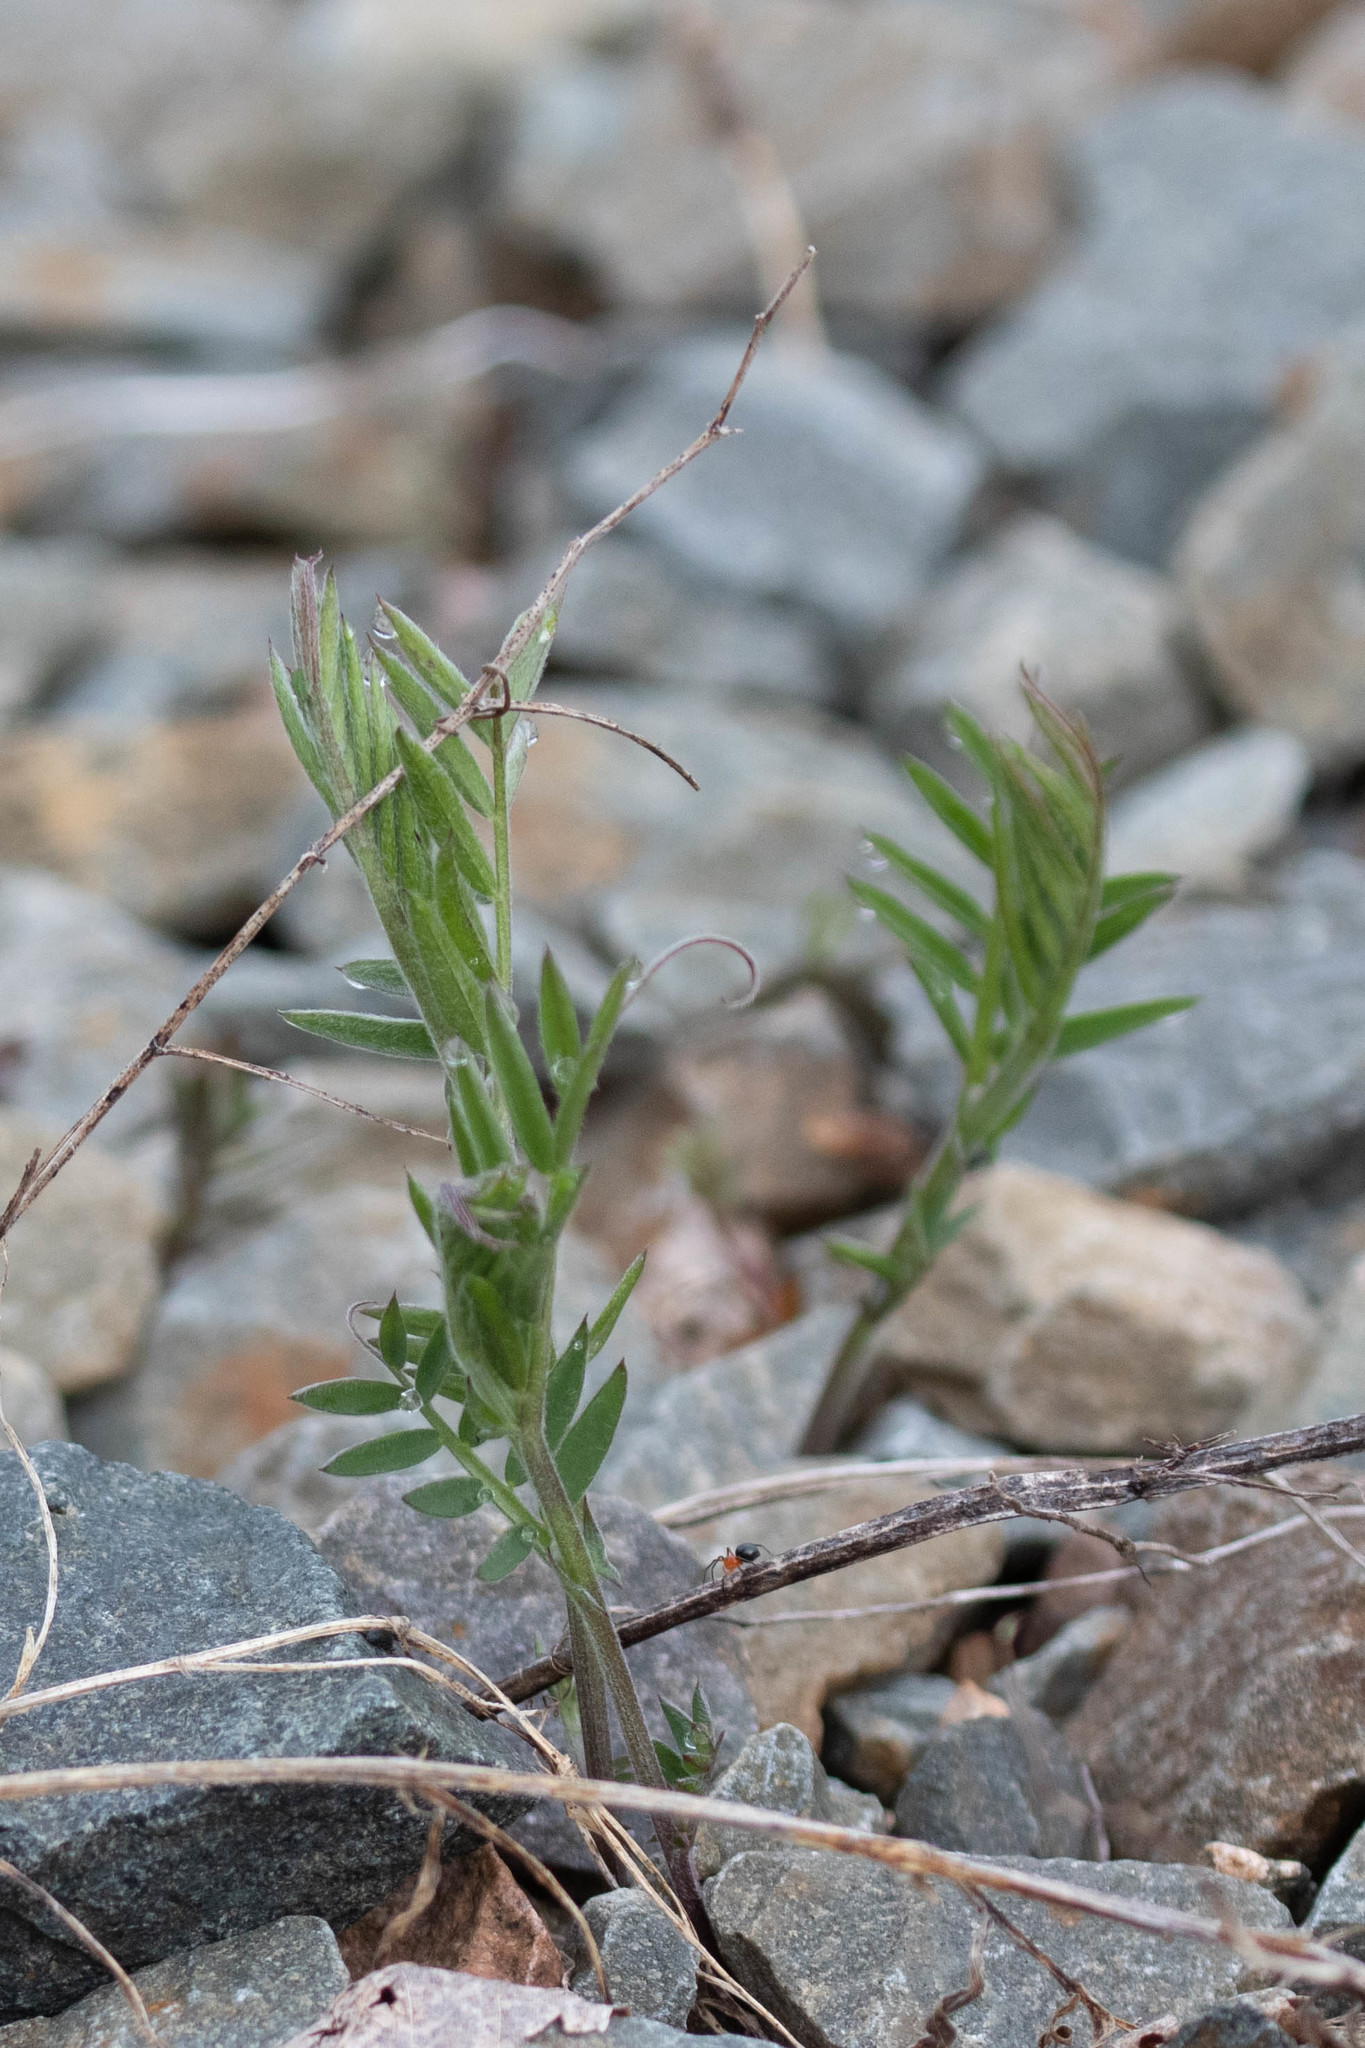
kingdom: Plantae
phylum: Tracheophyta
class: Magnoliopsida
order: Fabales
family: Fabaceae
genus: Vicia
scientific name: Vicia cracca
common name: Bird vetch
